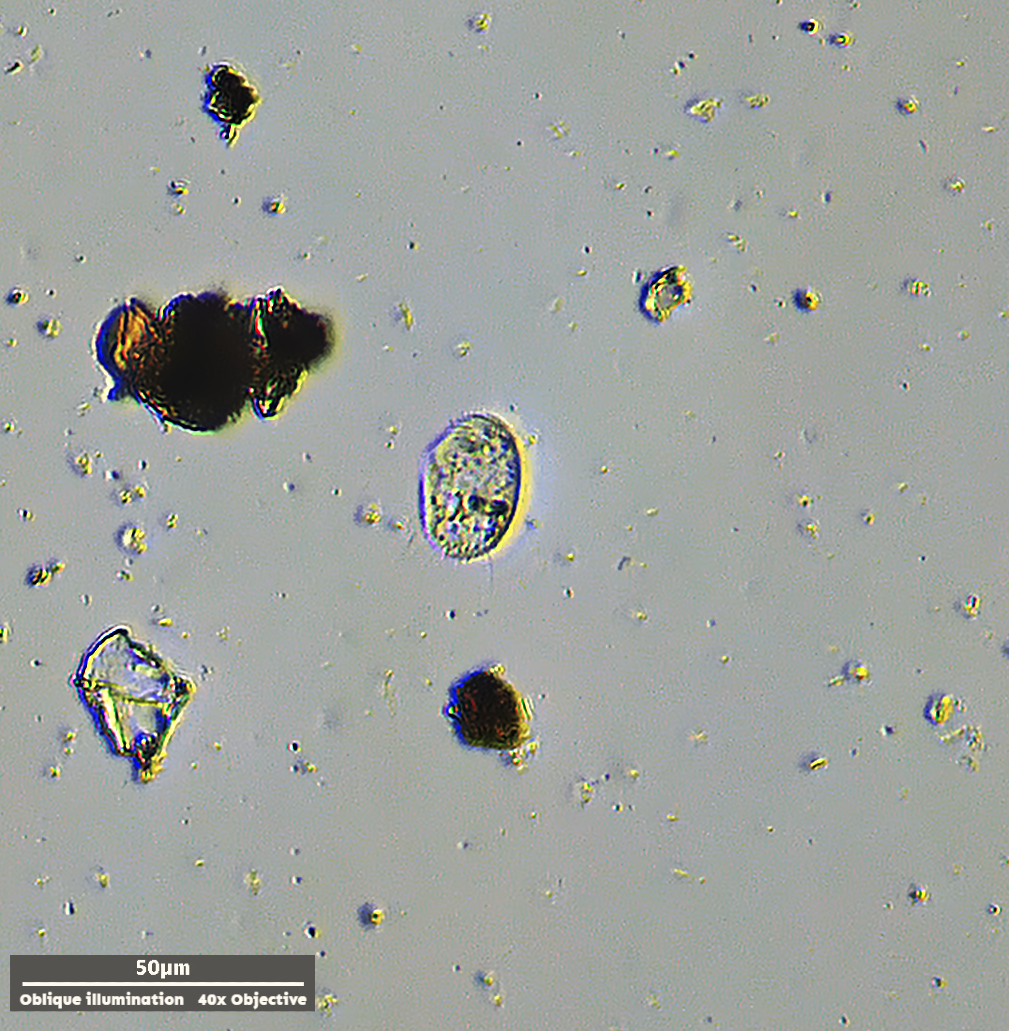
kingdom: Chromista
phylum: Ciliophora
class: Nassophorea
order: Nassulida
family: Leptopharynidae
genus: Leptopharynx
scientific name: Leptopharynx costatus
